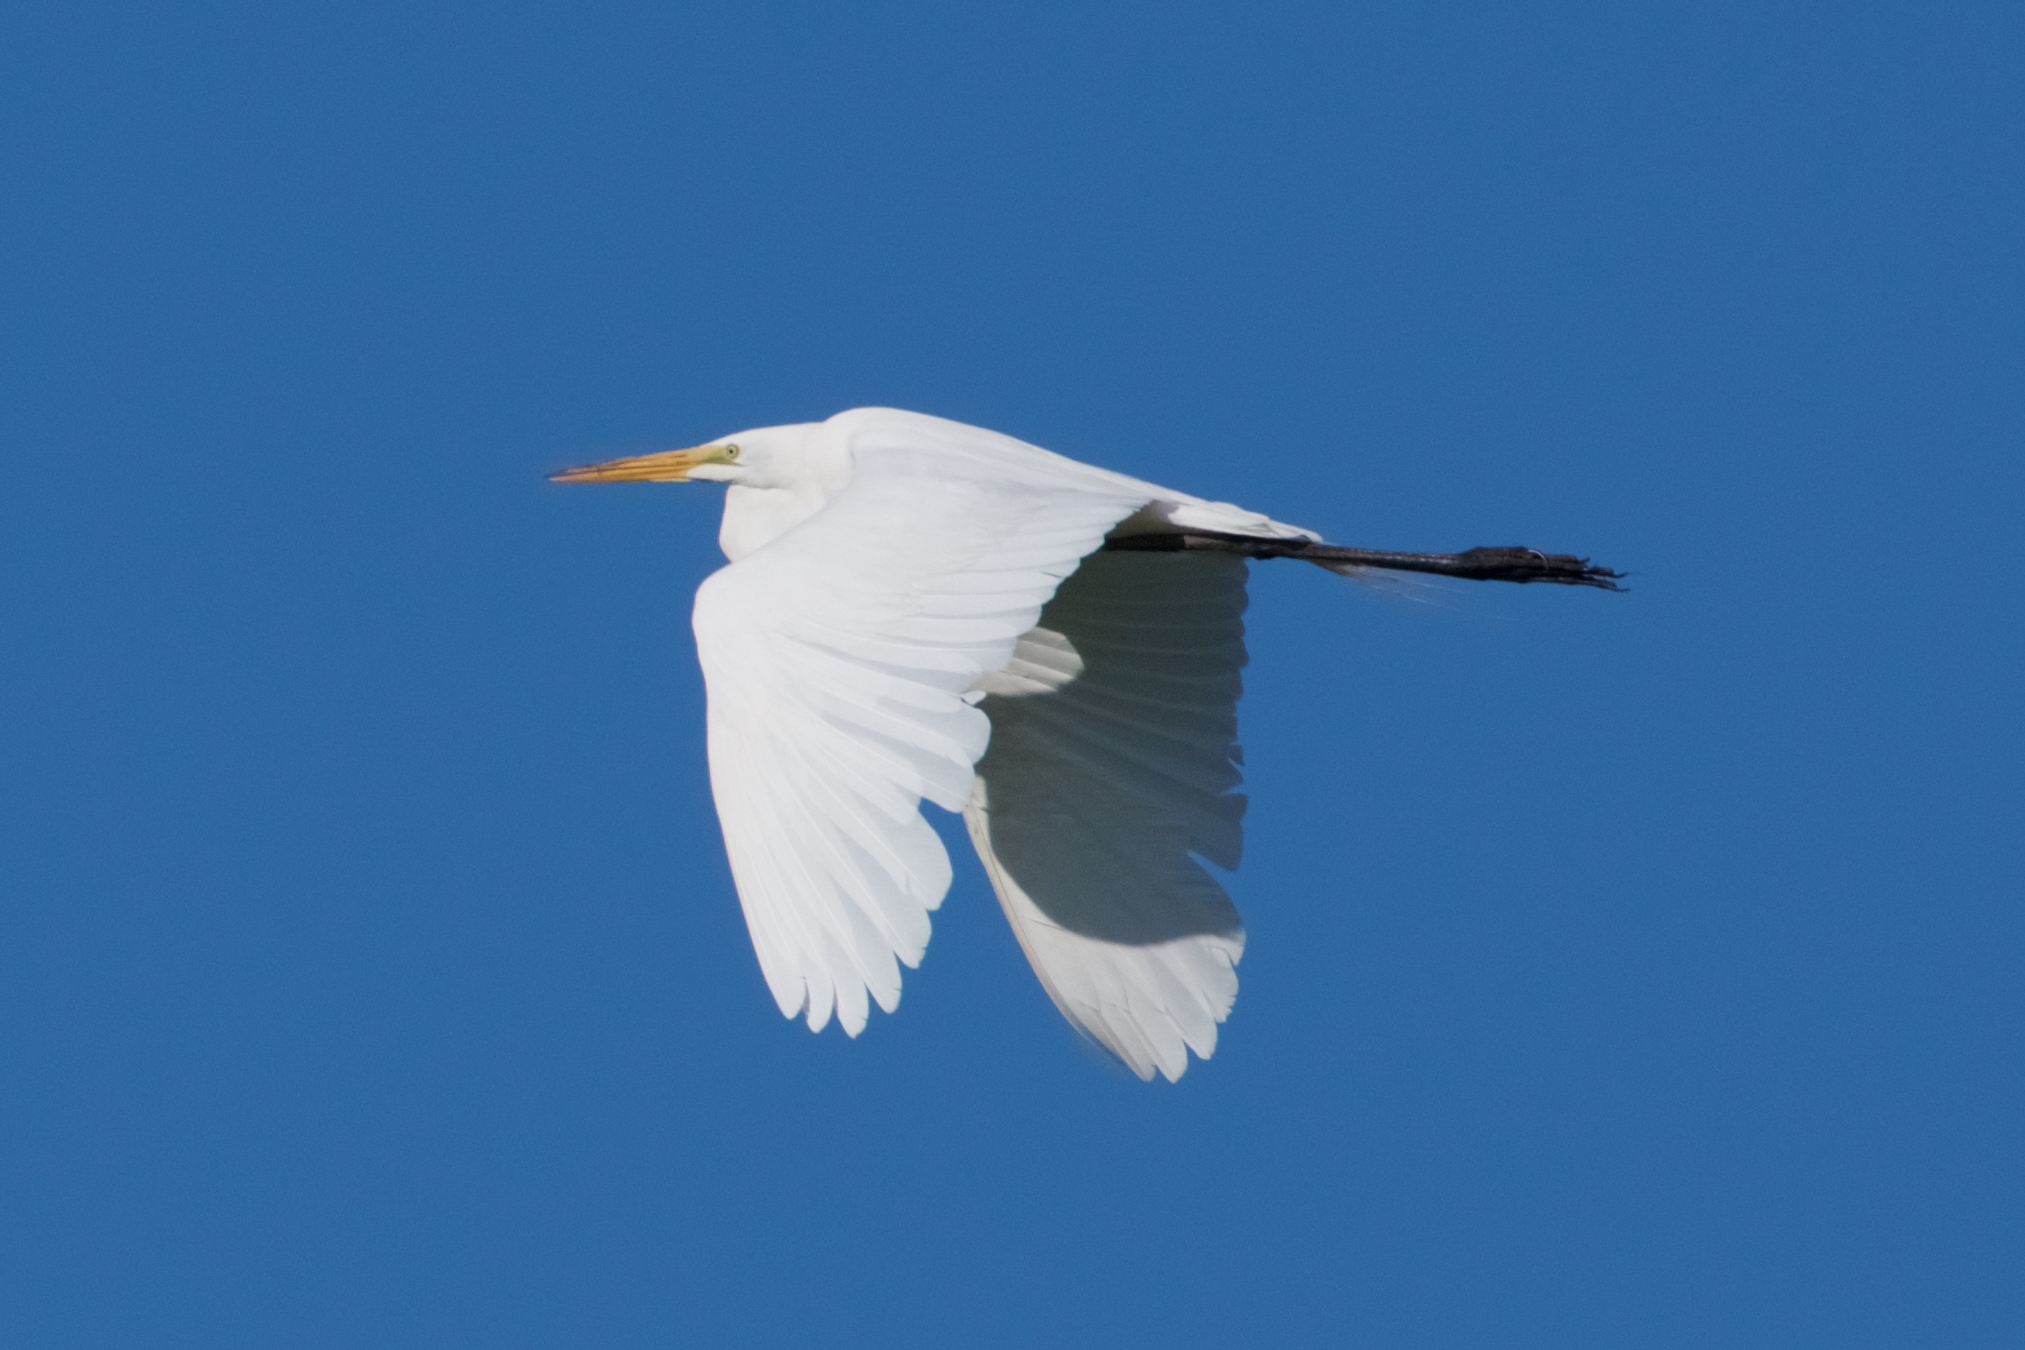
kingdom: Animalia
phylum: Chordata
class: Aves
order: Pelecaniformes
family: Ardeidae
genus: Ardea
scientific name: Ardea alba
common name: Great egret
